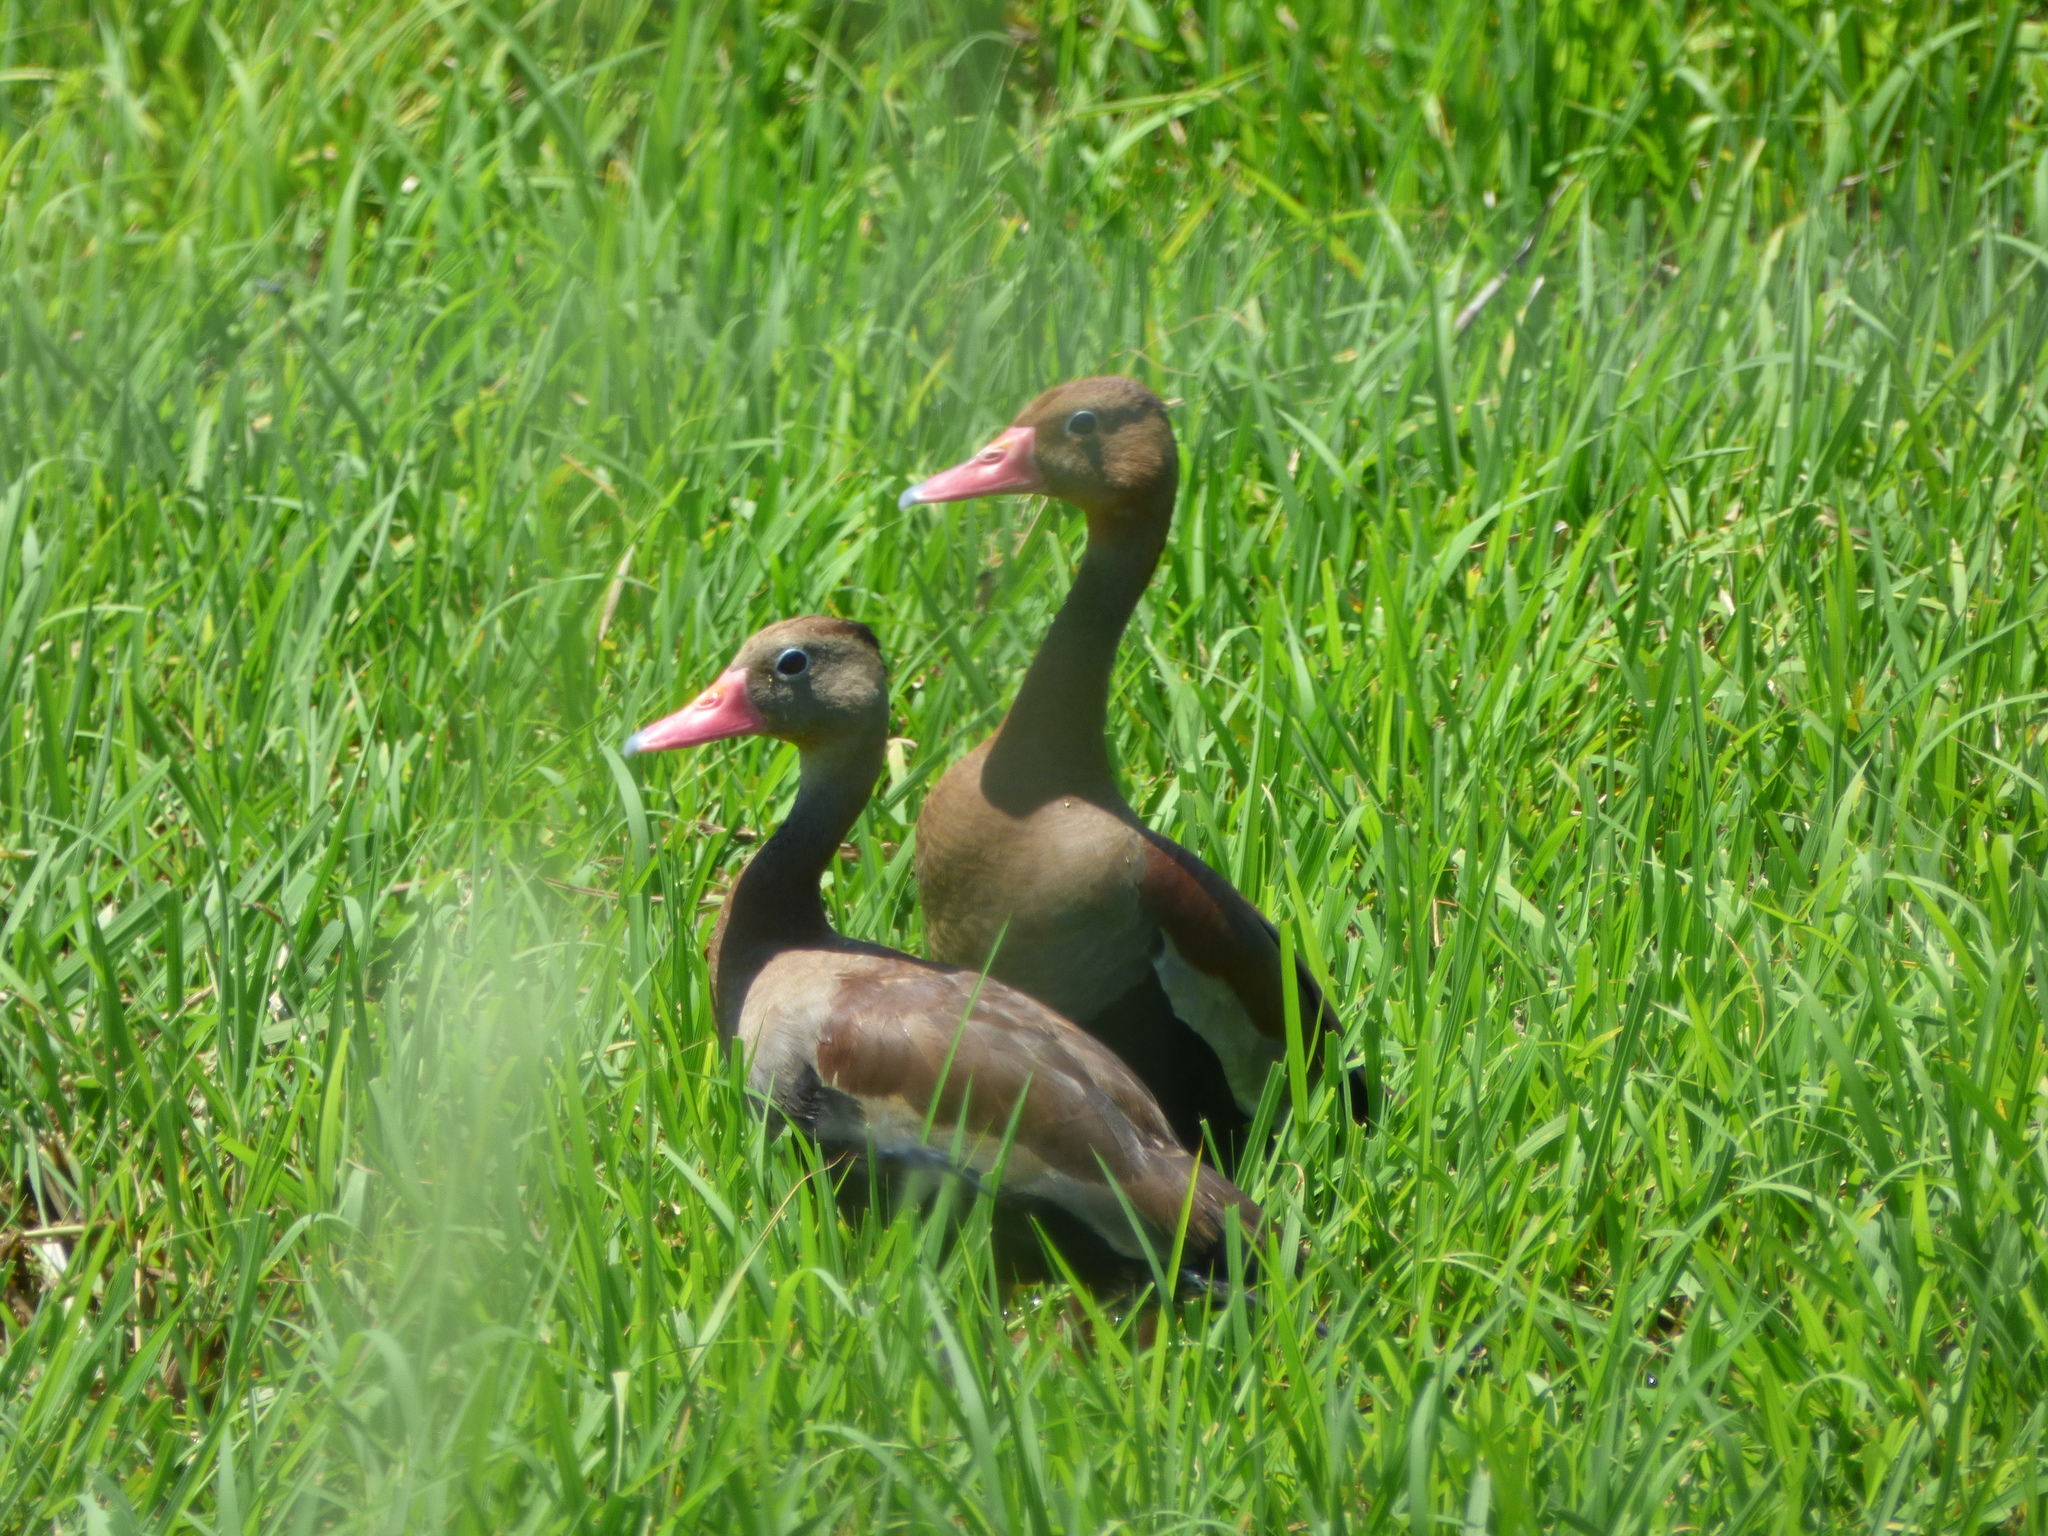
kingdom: Animalia
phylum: Chordata
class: Aves
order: Anseriformes
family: Anatidae
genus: Dendrocygna
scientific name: Dendrocygna autumnalis
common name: Black-bellied whistling duck
